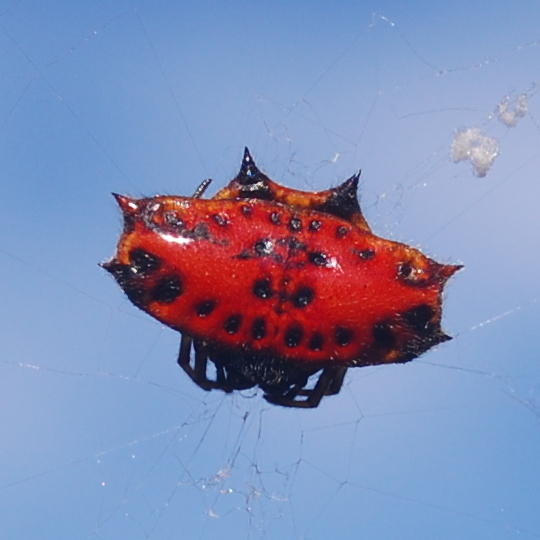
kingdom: Animalia
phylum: Arthropoda
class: Arachnida
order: Araneae
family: Araneidae
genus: Gasteracantha
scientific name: Gasteracantha cancriformis
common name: Orb weavers
